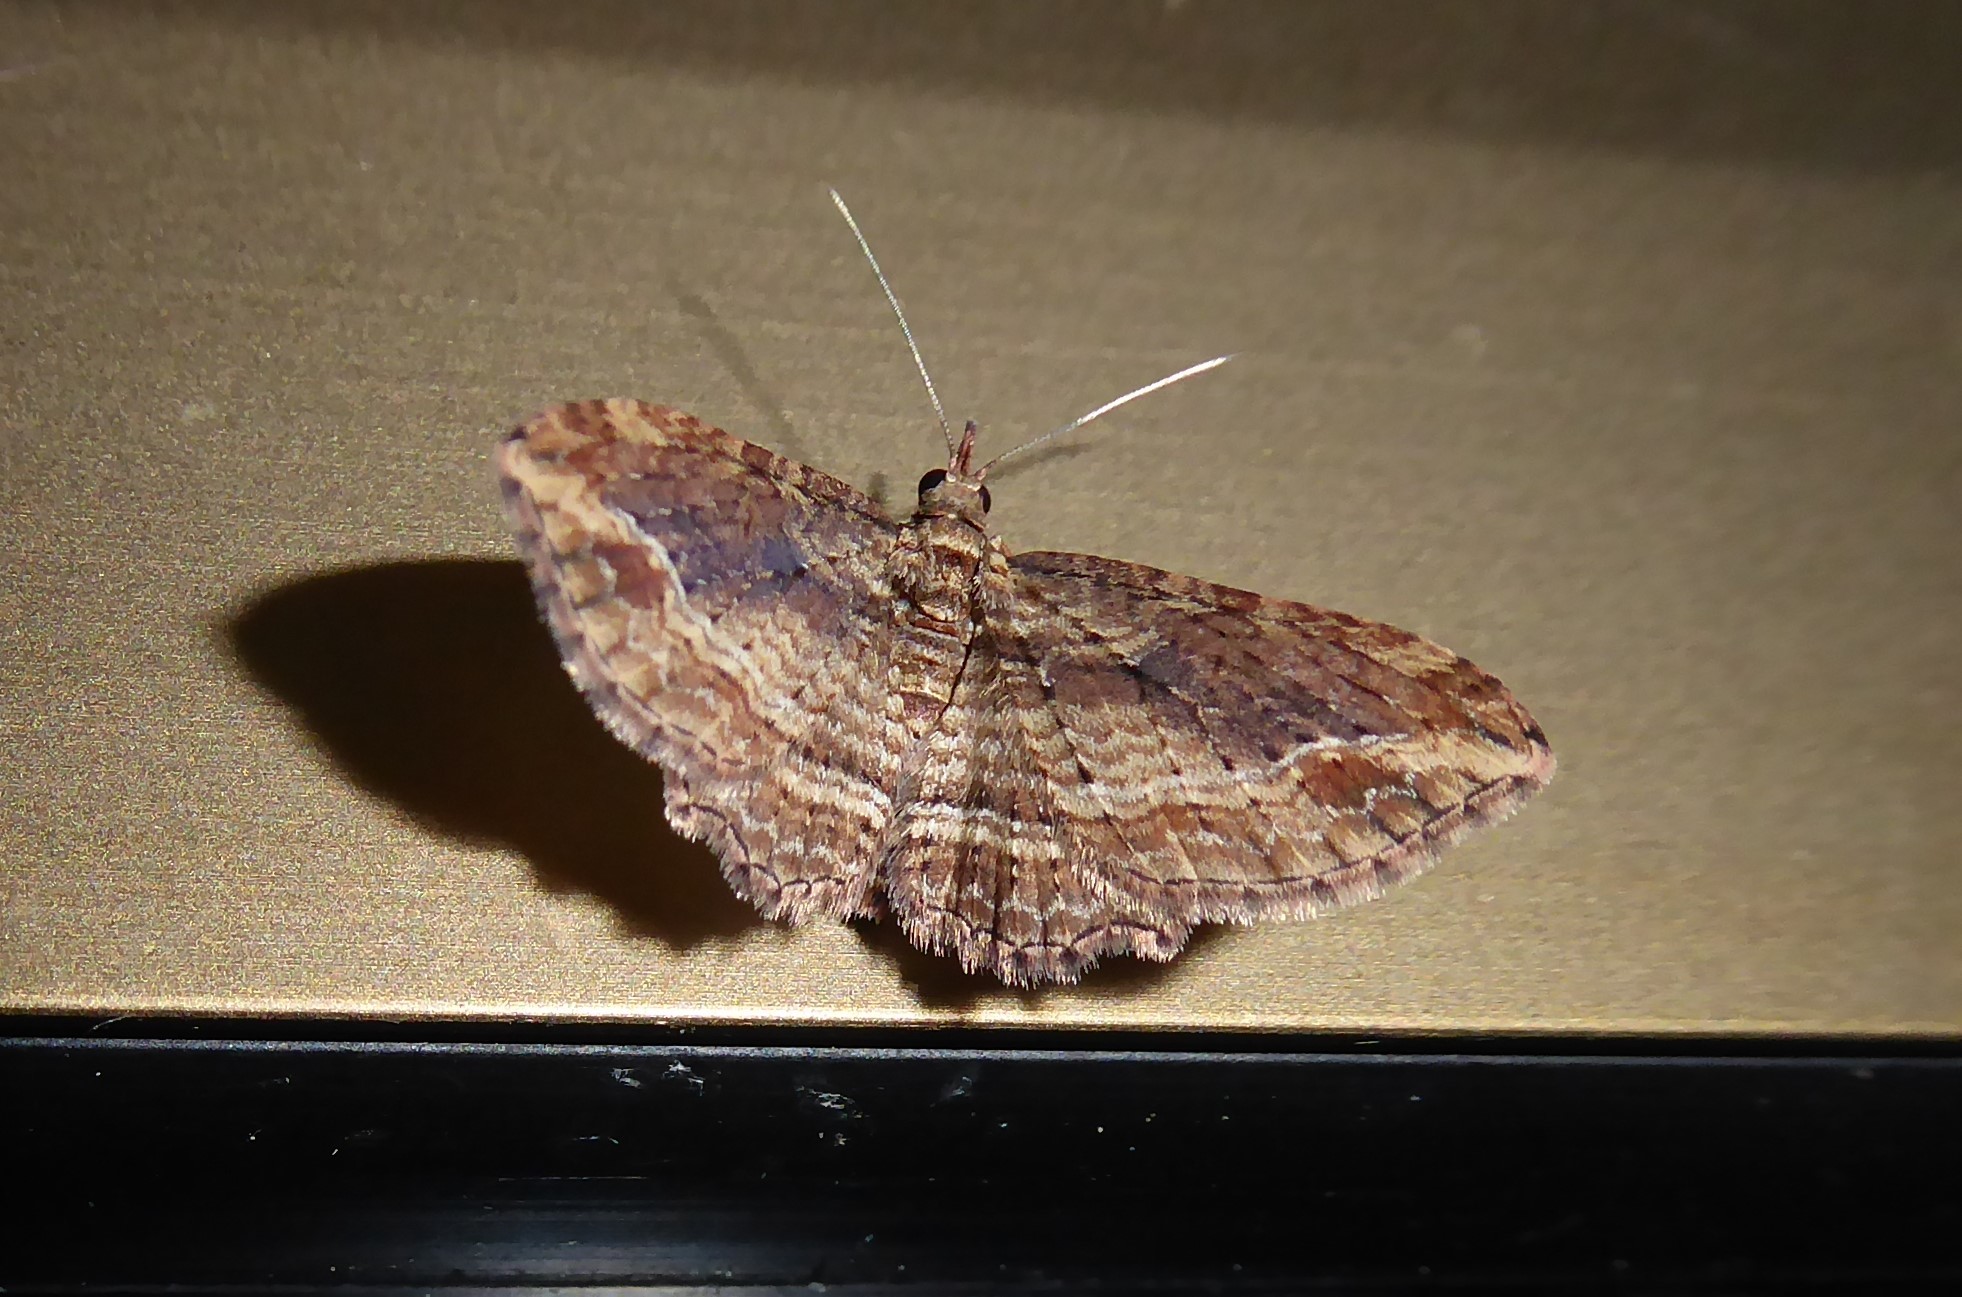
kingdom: Animalia
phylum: Arthropoda
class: Insecta
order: Lepidoptera
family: Geometridae
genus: Chloroclystis
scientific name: Chloroclystis filata
